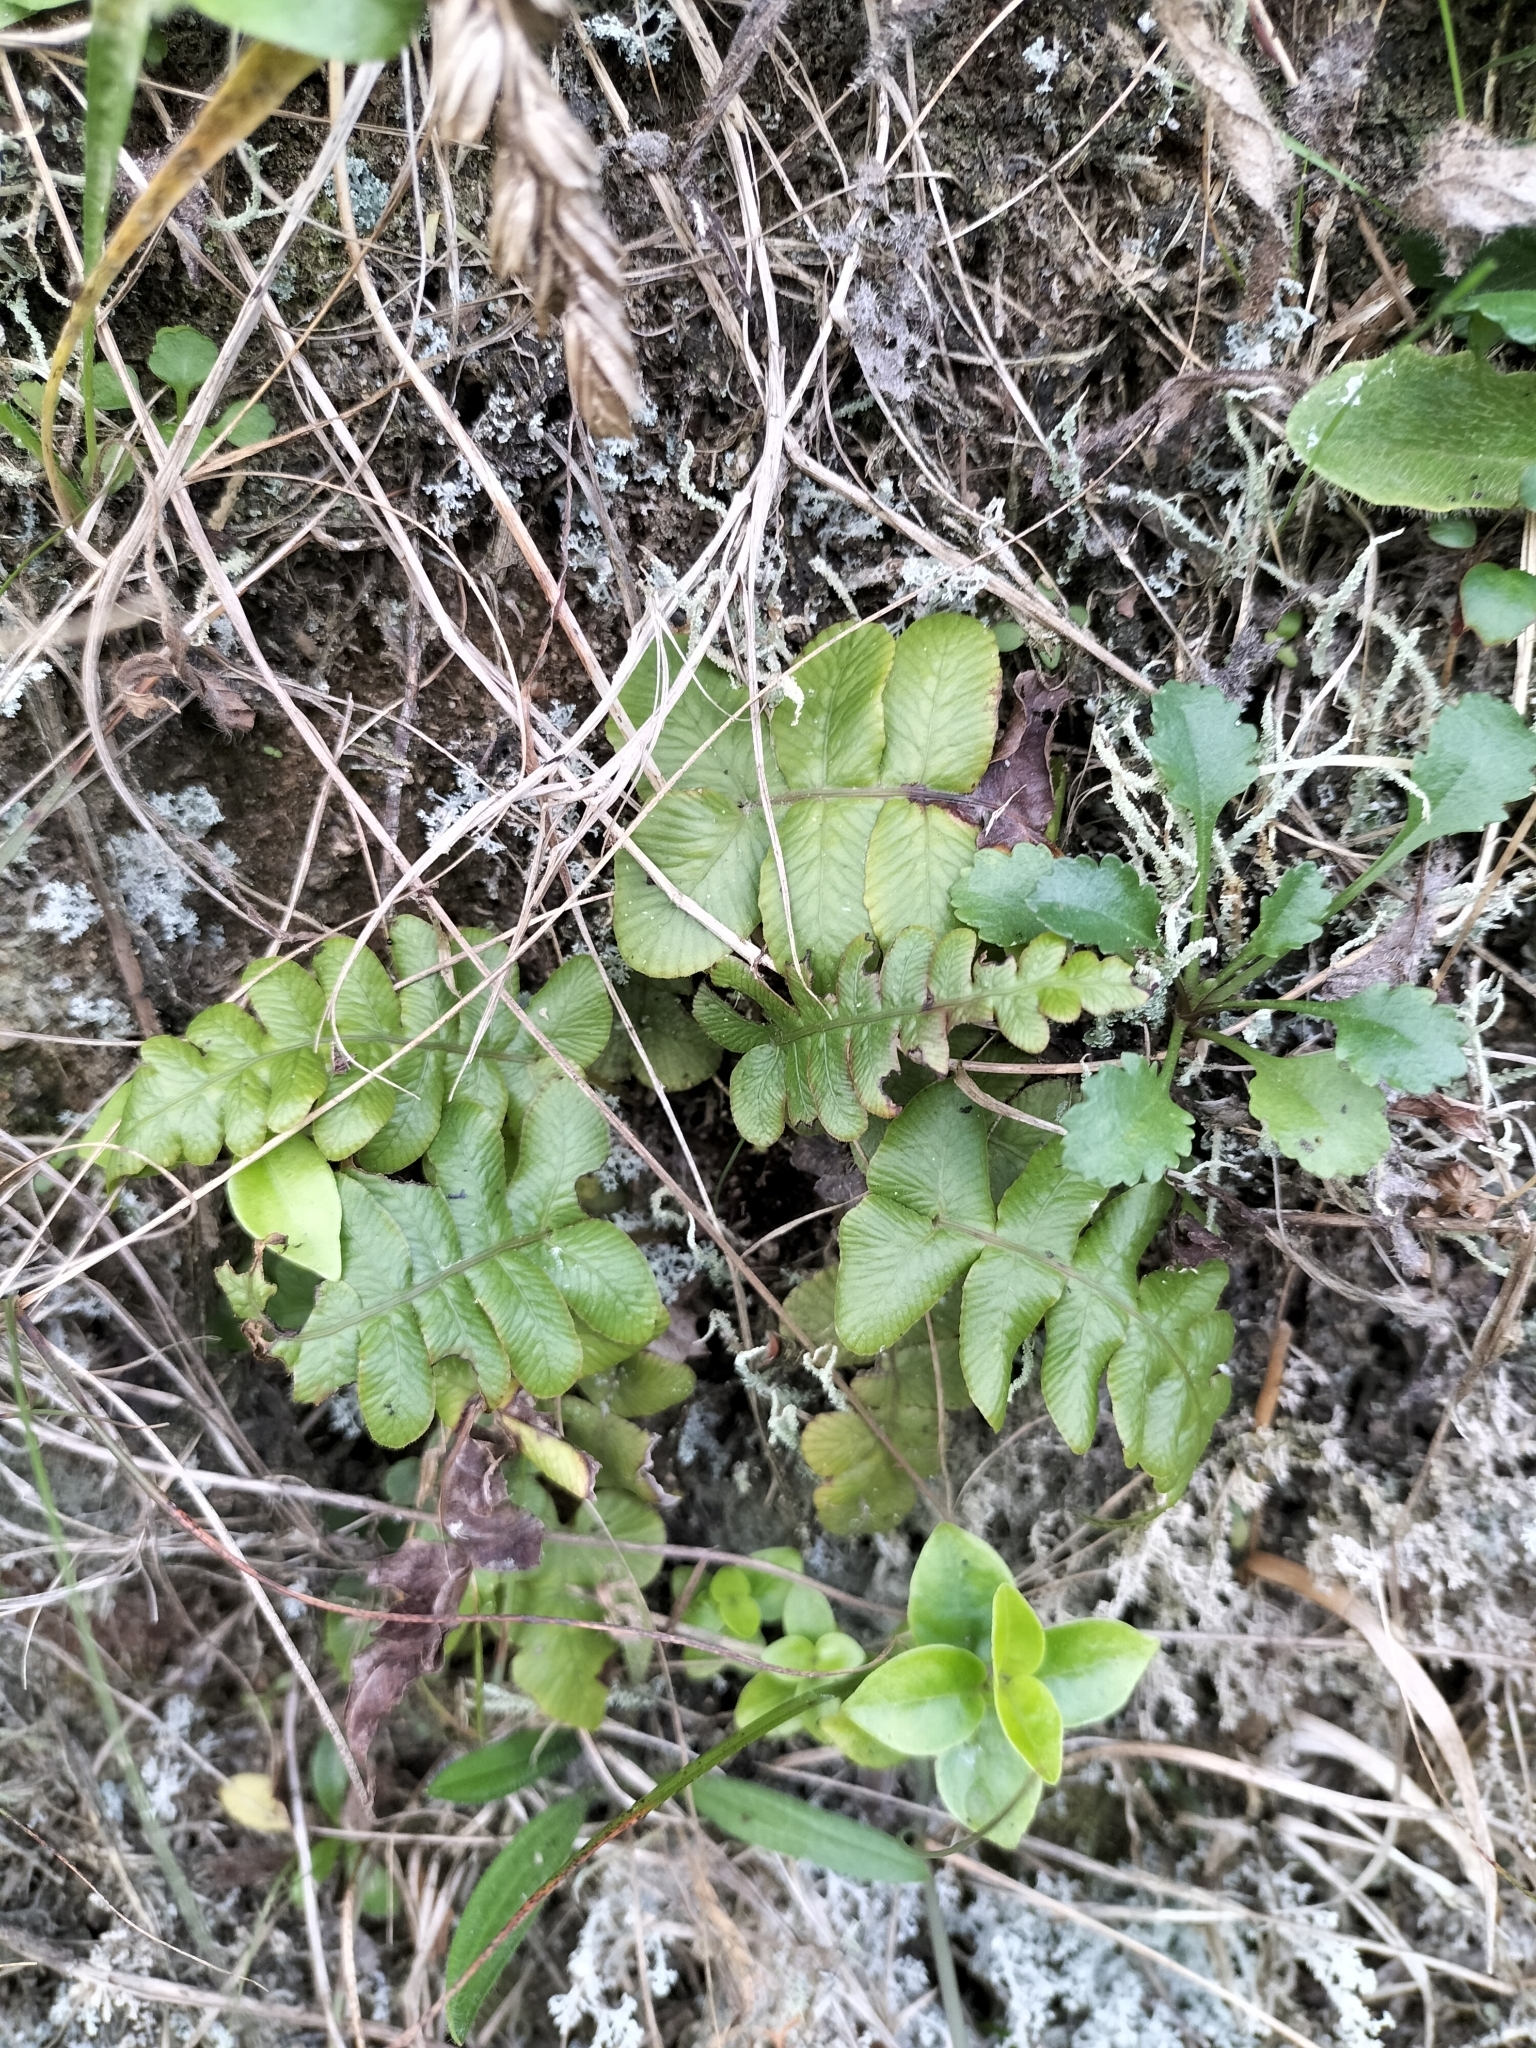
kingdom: Plantae
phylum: Tracheophyta
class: Polypodiopsida
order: Polypodiales
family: Blechnaceae
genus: Cranfillia
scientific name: Cranfillia deltoides
